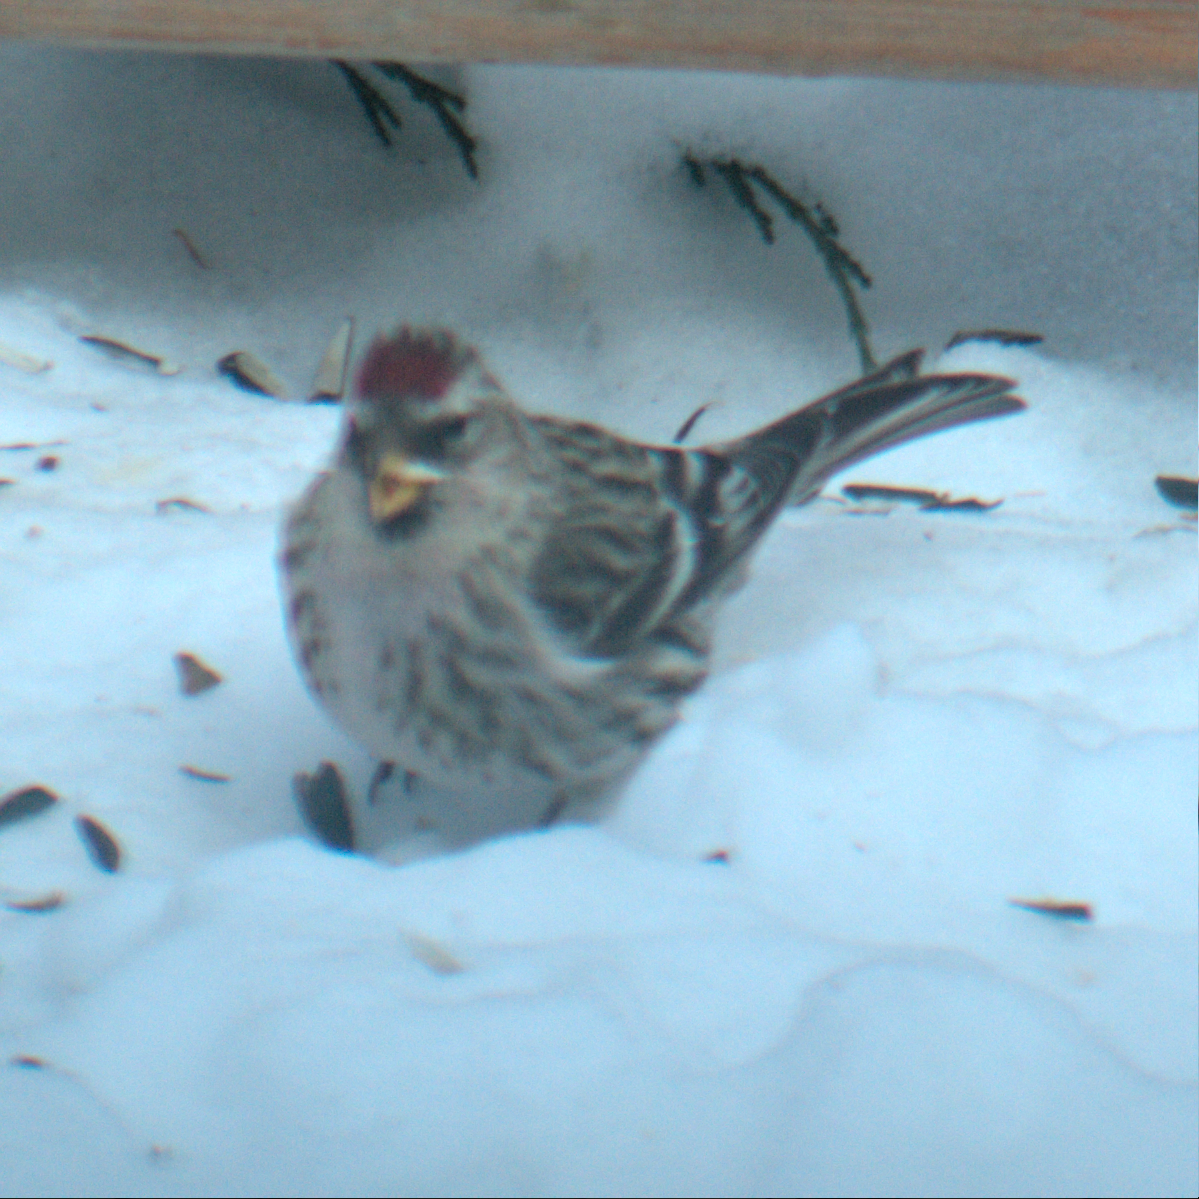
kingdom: Animalia
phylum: Chordata
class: Aves
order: Passeriformes
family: Fringillidae
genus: Acanthis
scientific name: Acanthis flammea
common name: Common redpoll
